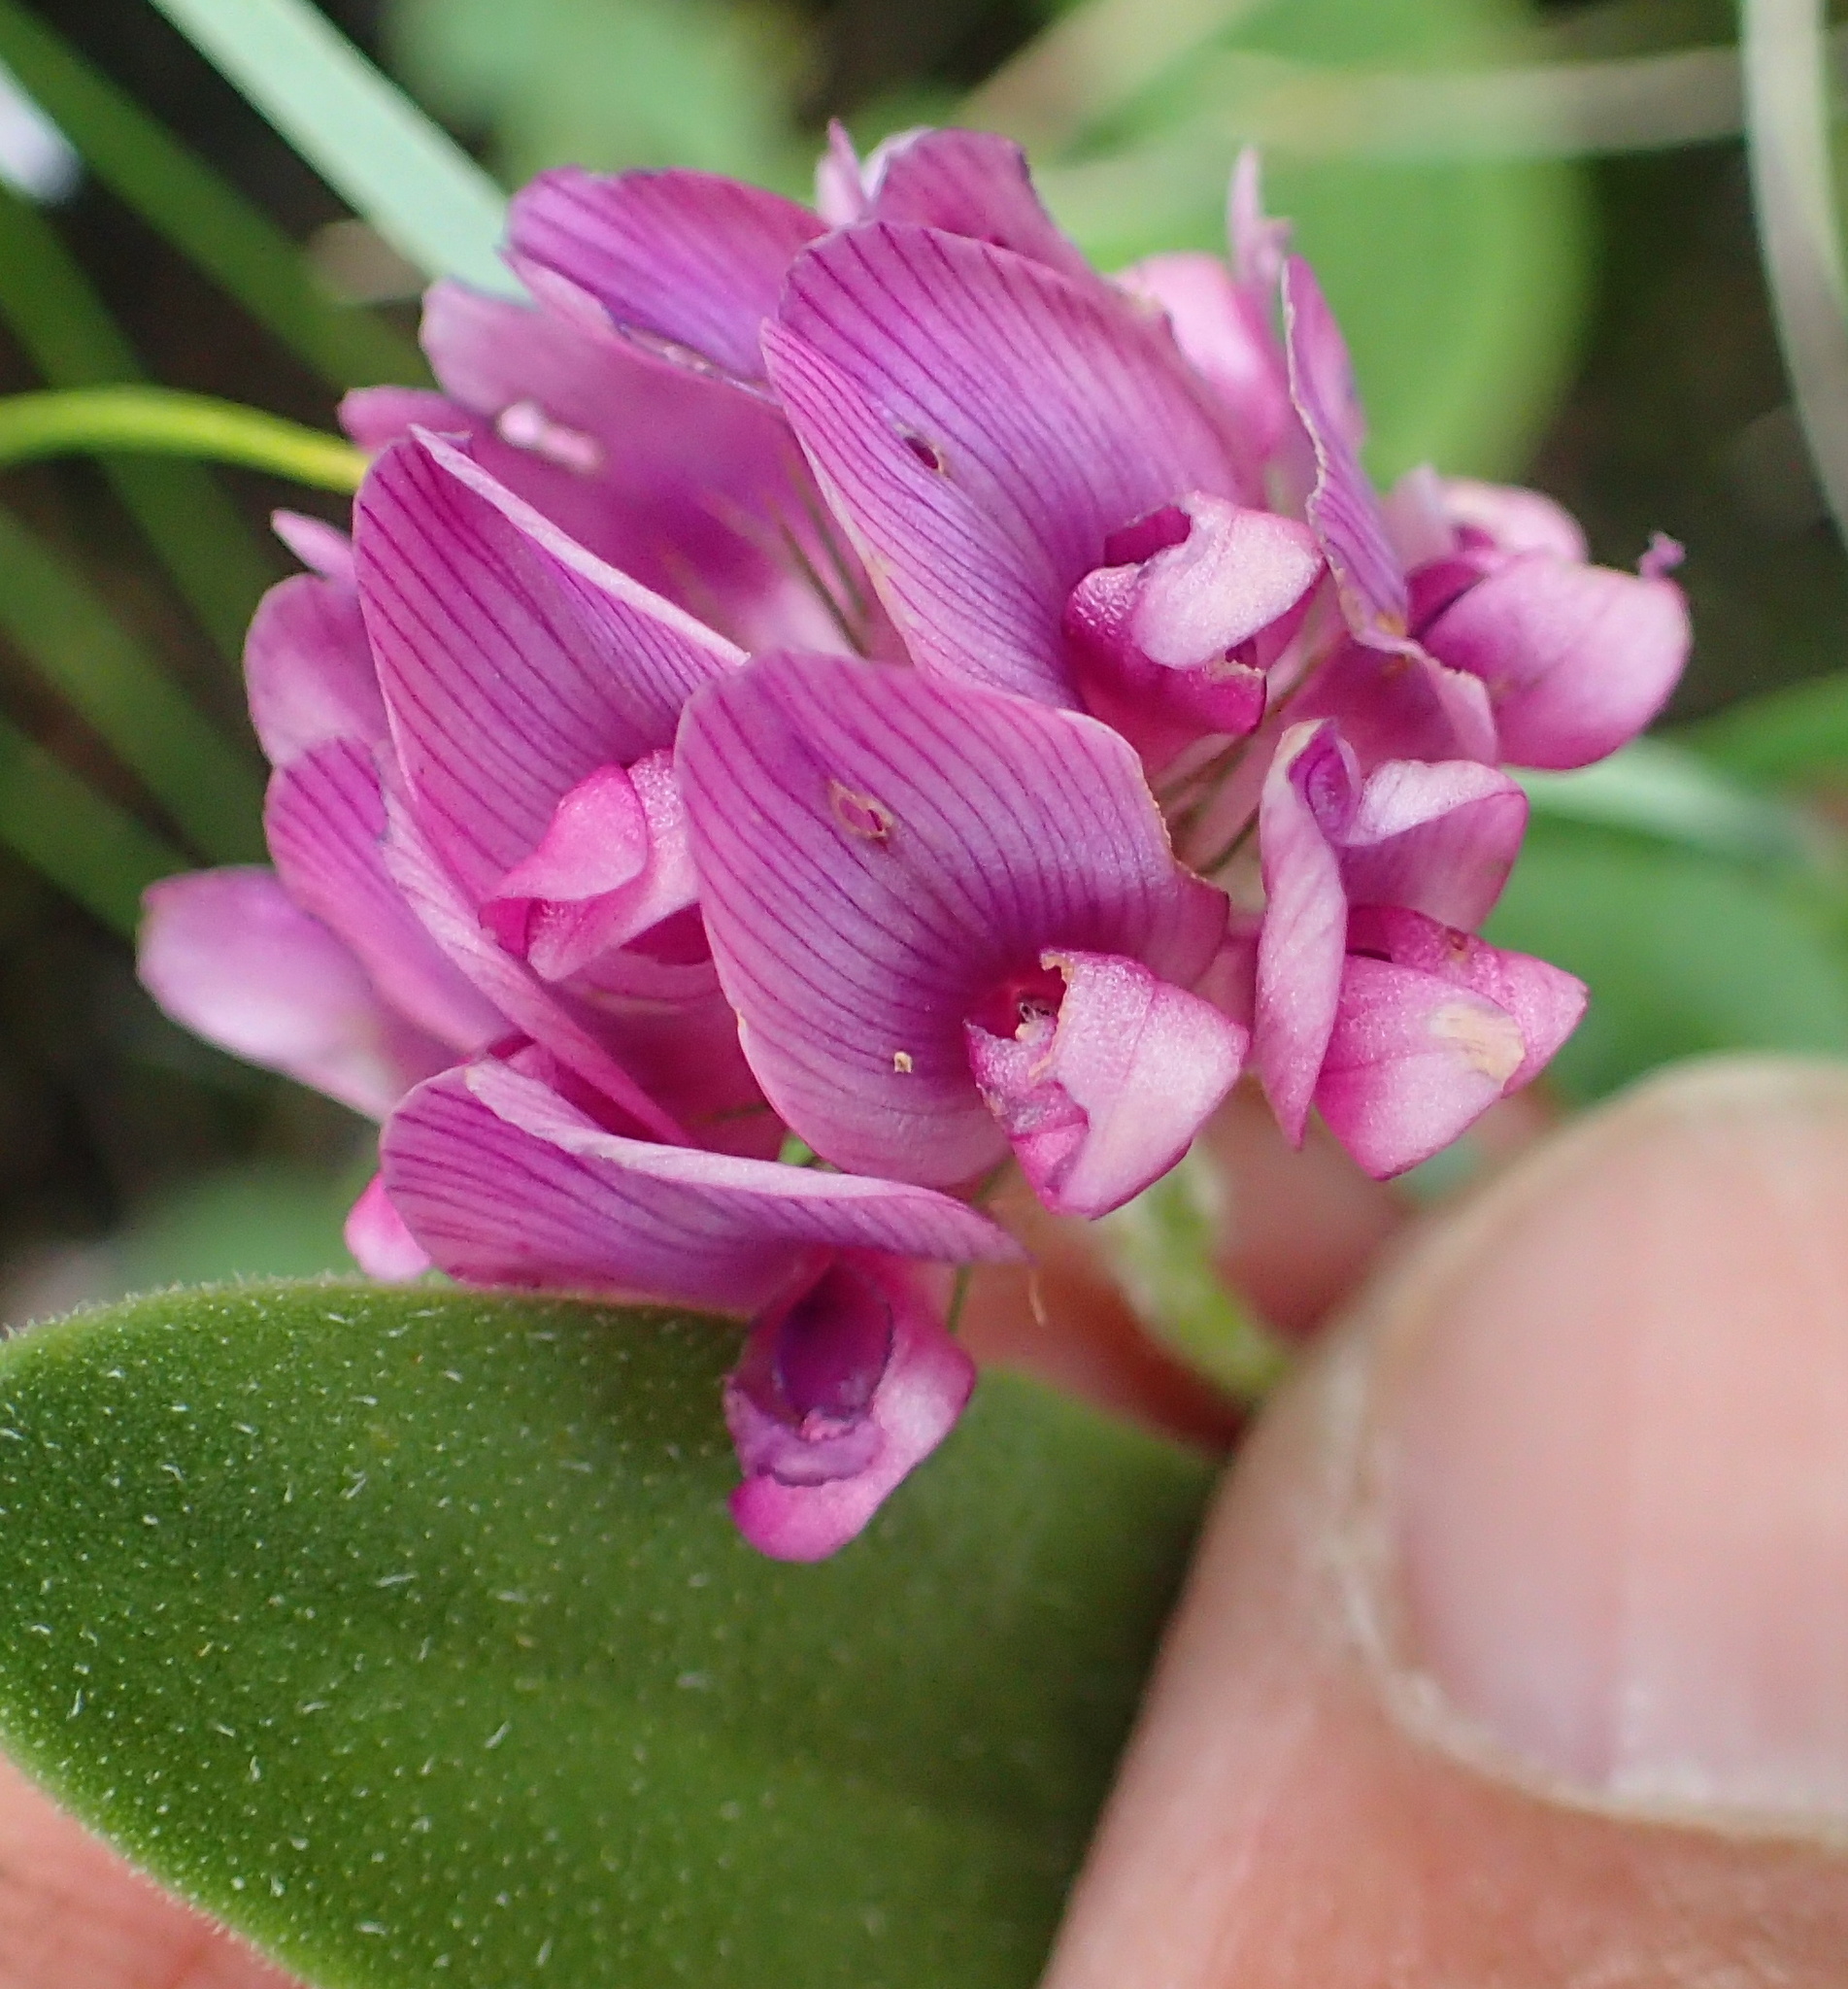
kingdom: Plantae
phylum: Tracheophyta
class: Magnoliopsida
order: Fabales
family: Fabaceae
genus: Trifolium
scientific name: Trifolium burchellianum
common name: Burchell's clover
